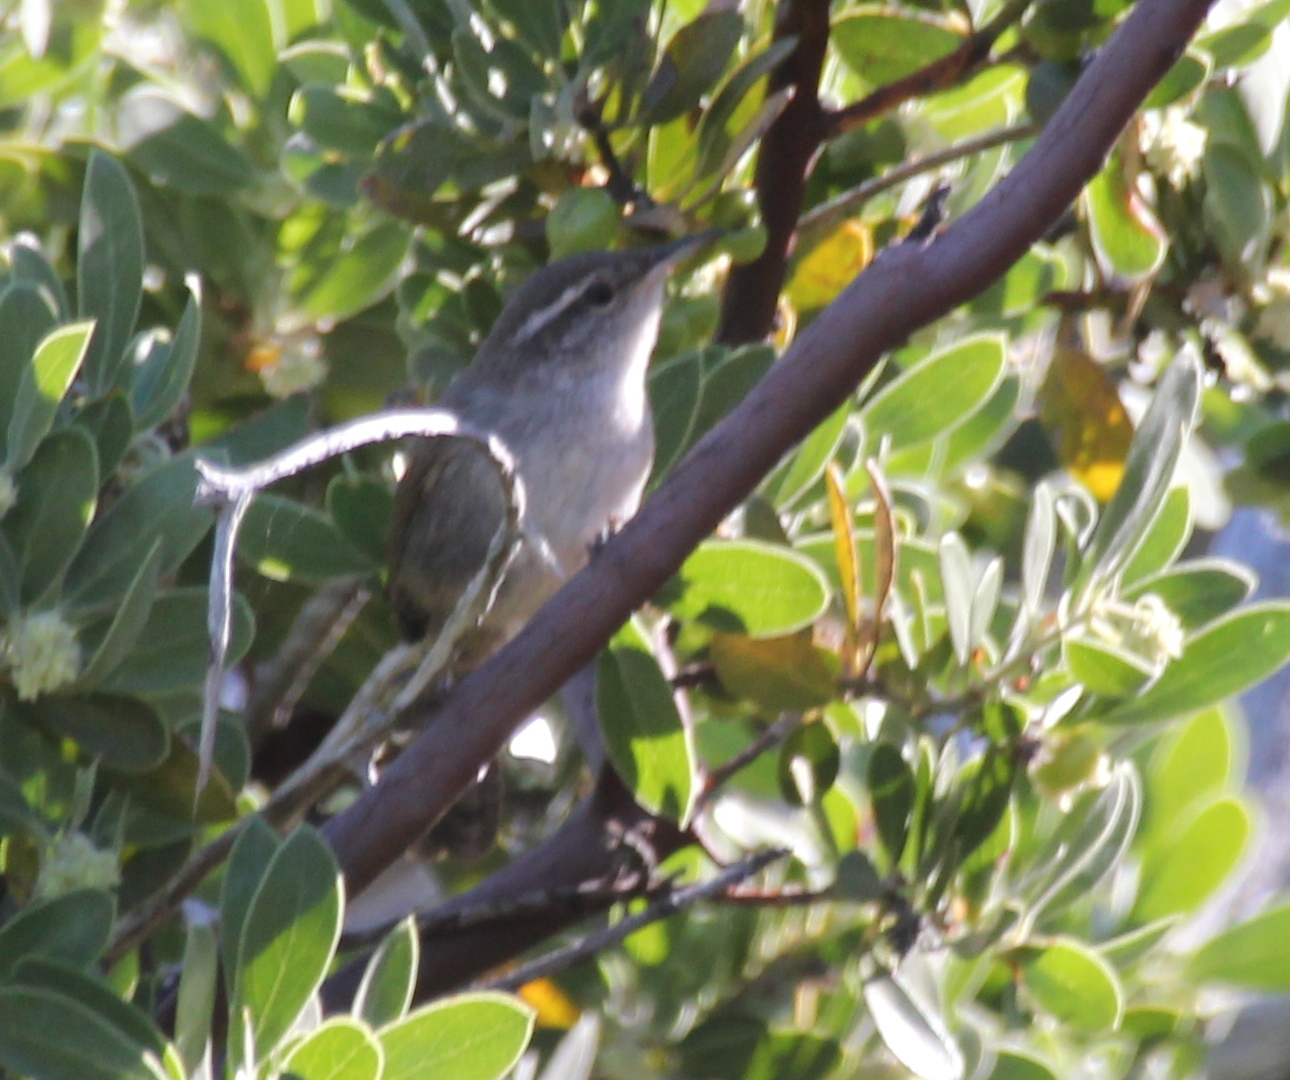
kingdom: Animalia
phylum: Chordata
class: Aves
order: Passeriformes
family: Troglodytidae
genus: Thryomanes
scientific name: Thryomanes bewickii
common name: Bewick's wren
